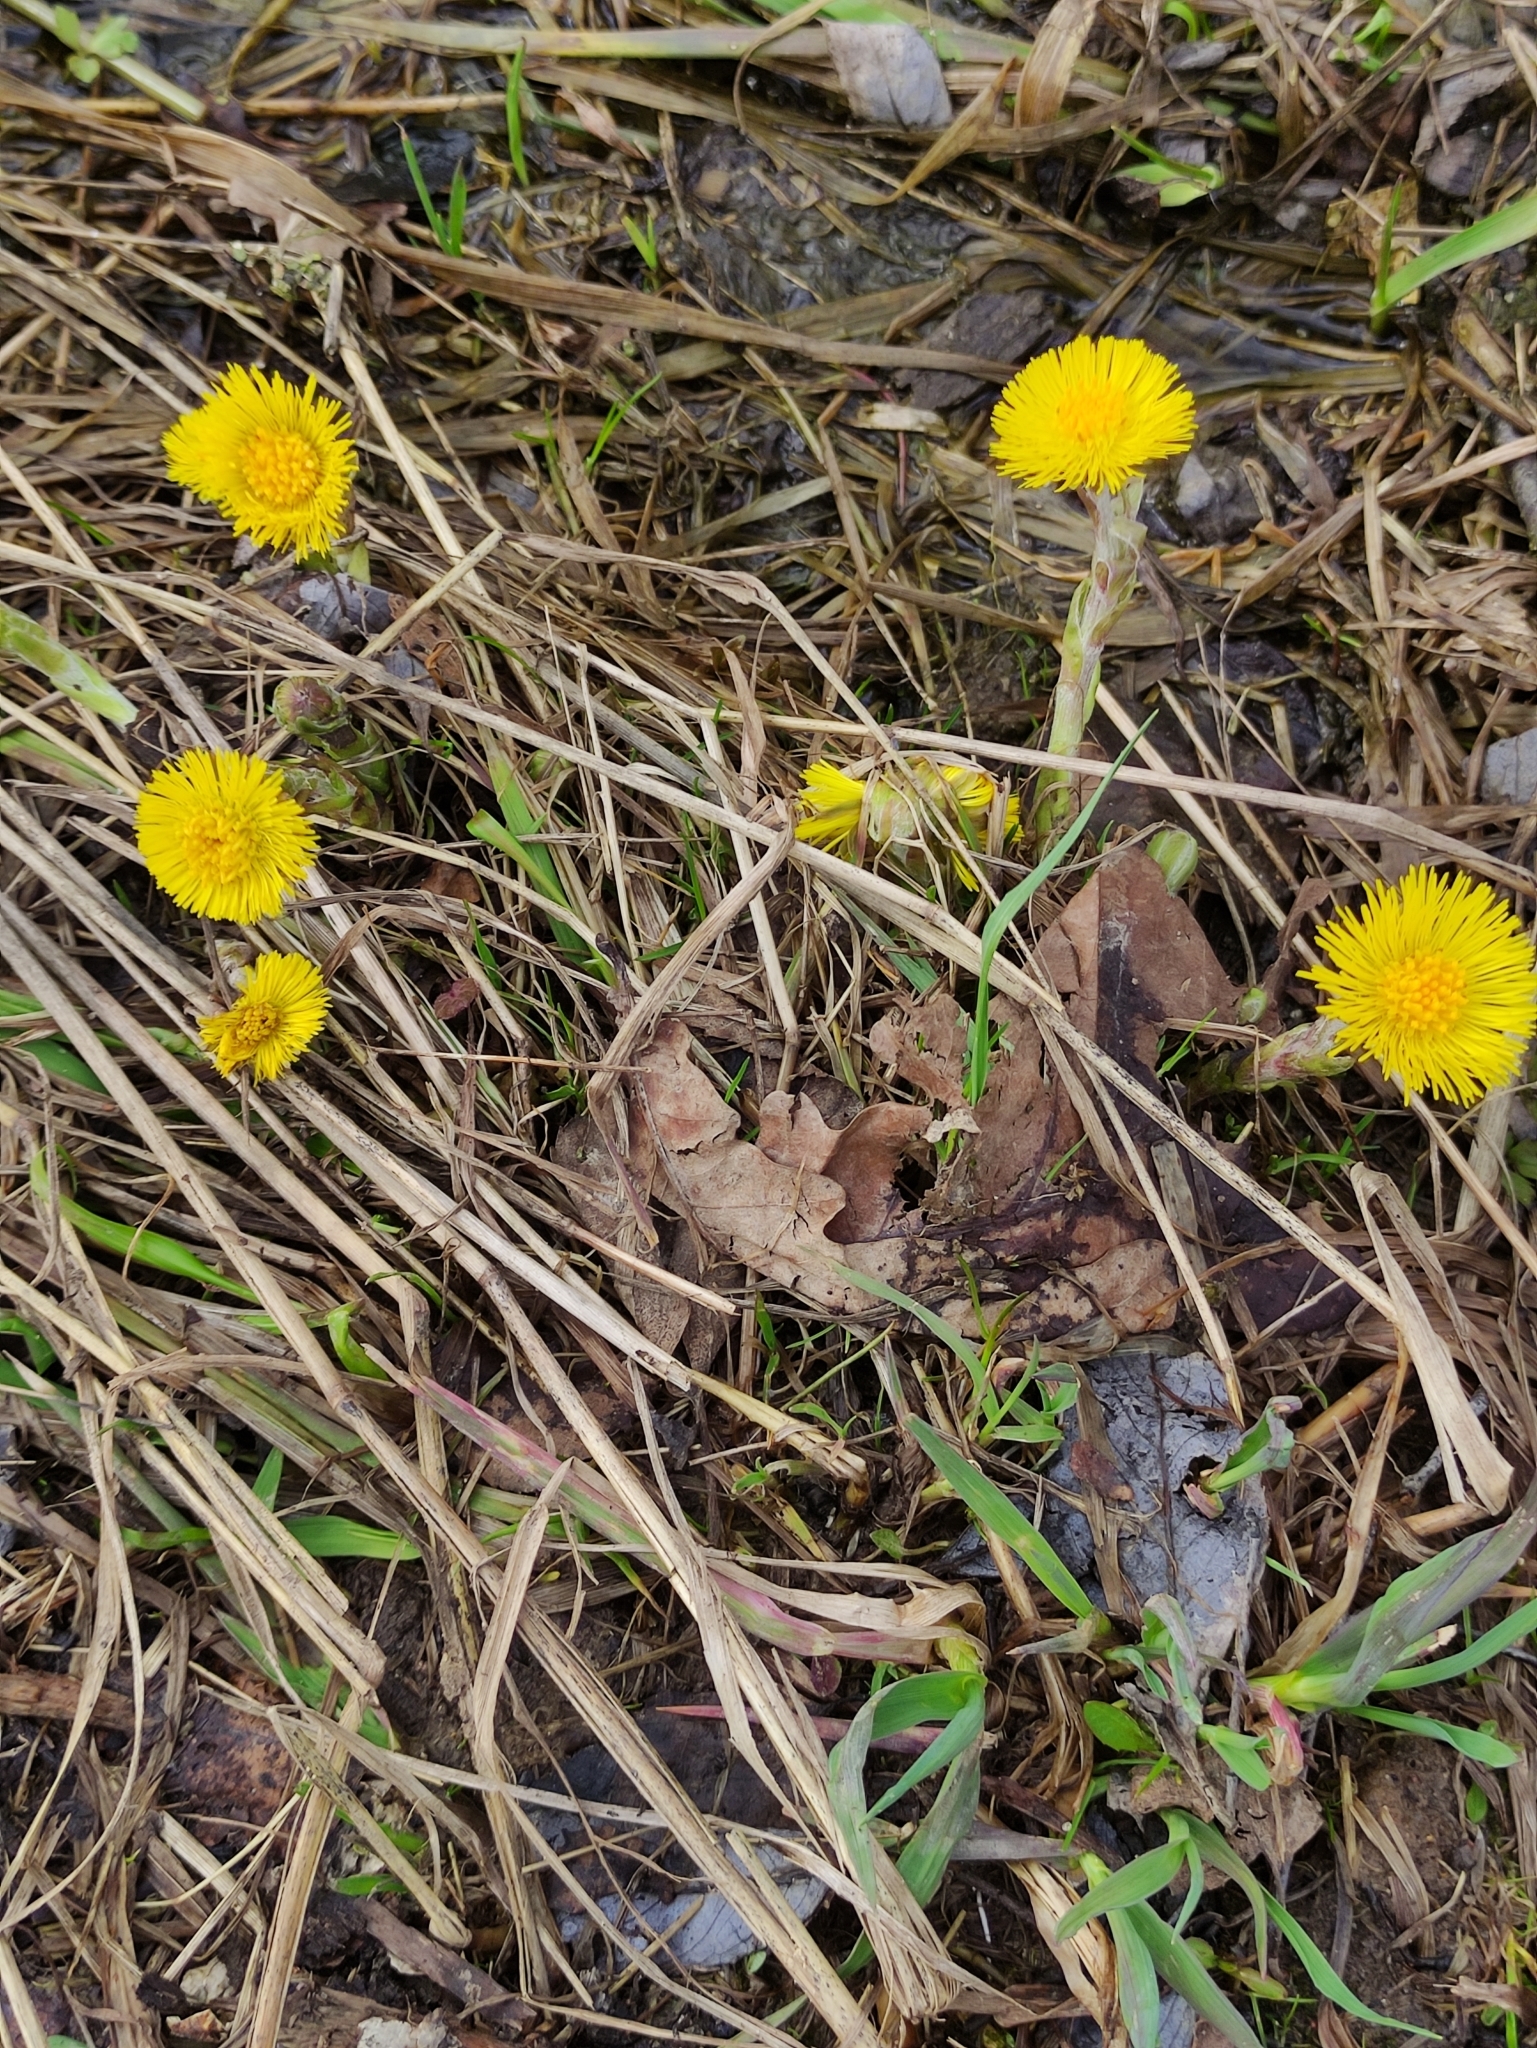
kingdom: Plantae
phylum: Tracheophyta
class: Magnoliopsida
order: Asterales
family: Asteraceae
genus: Tussilago
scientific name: Tussilago farfara
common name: Coltsfoot
